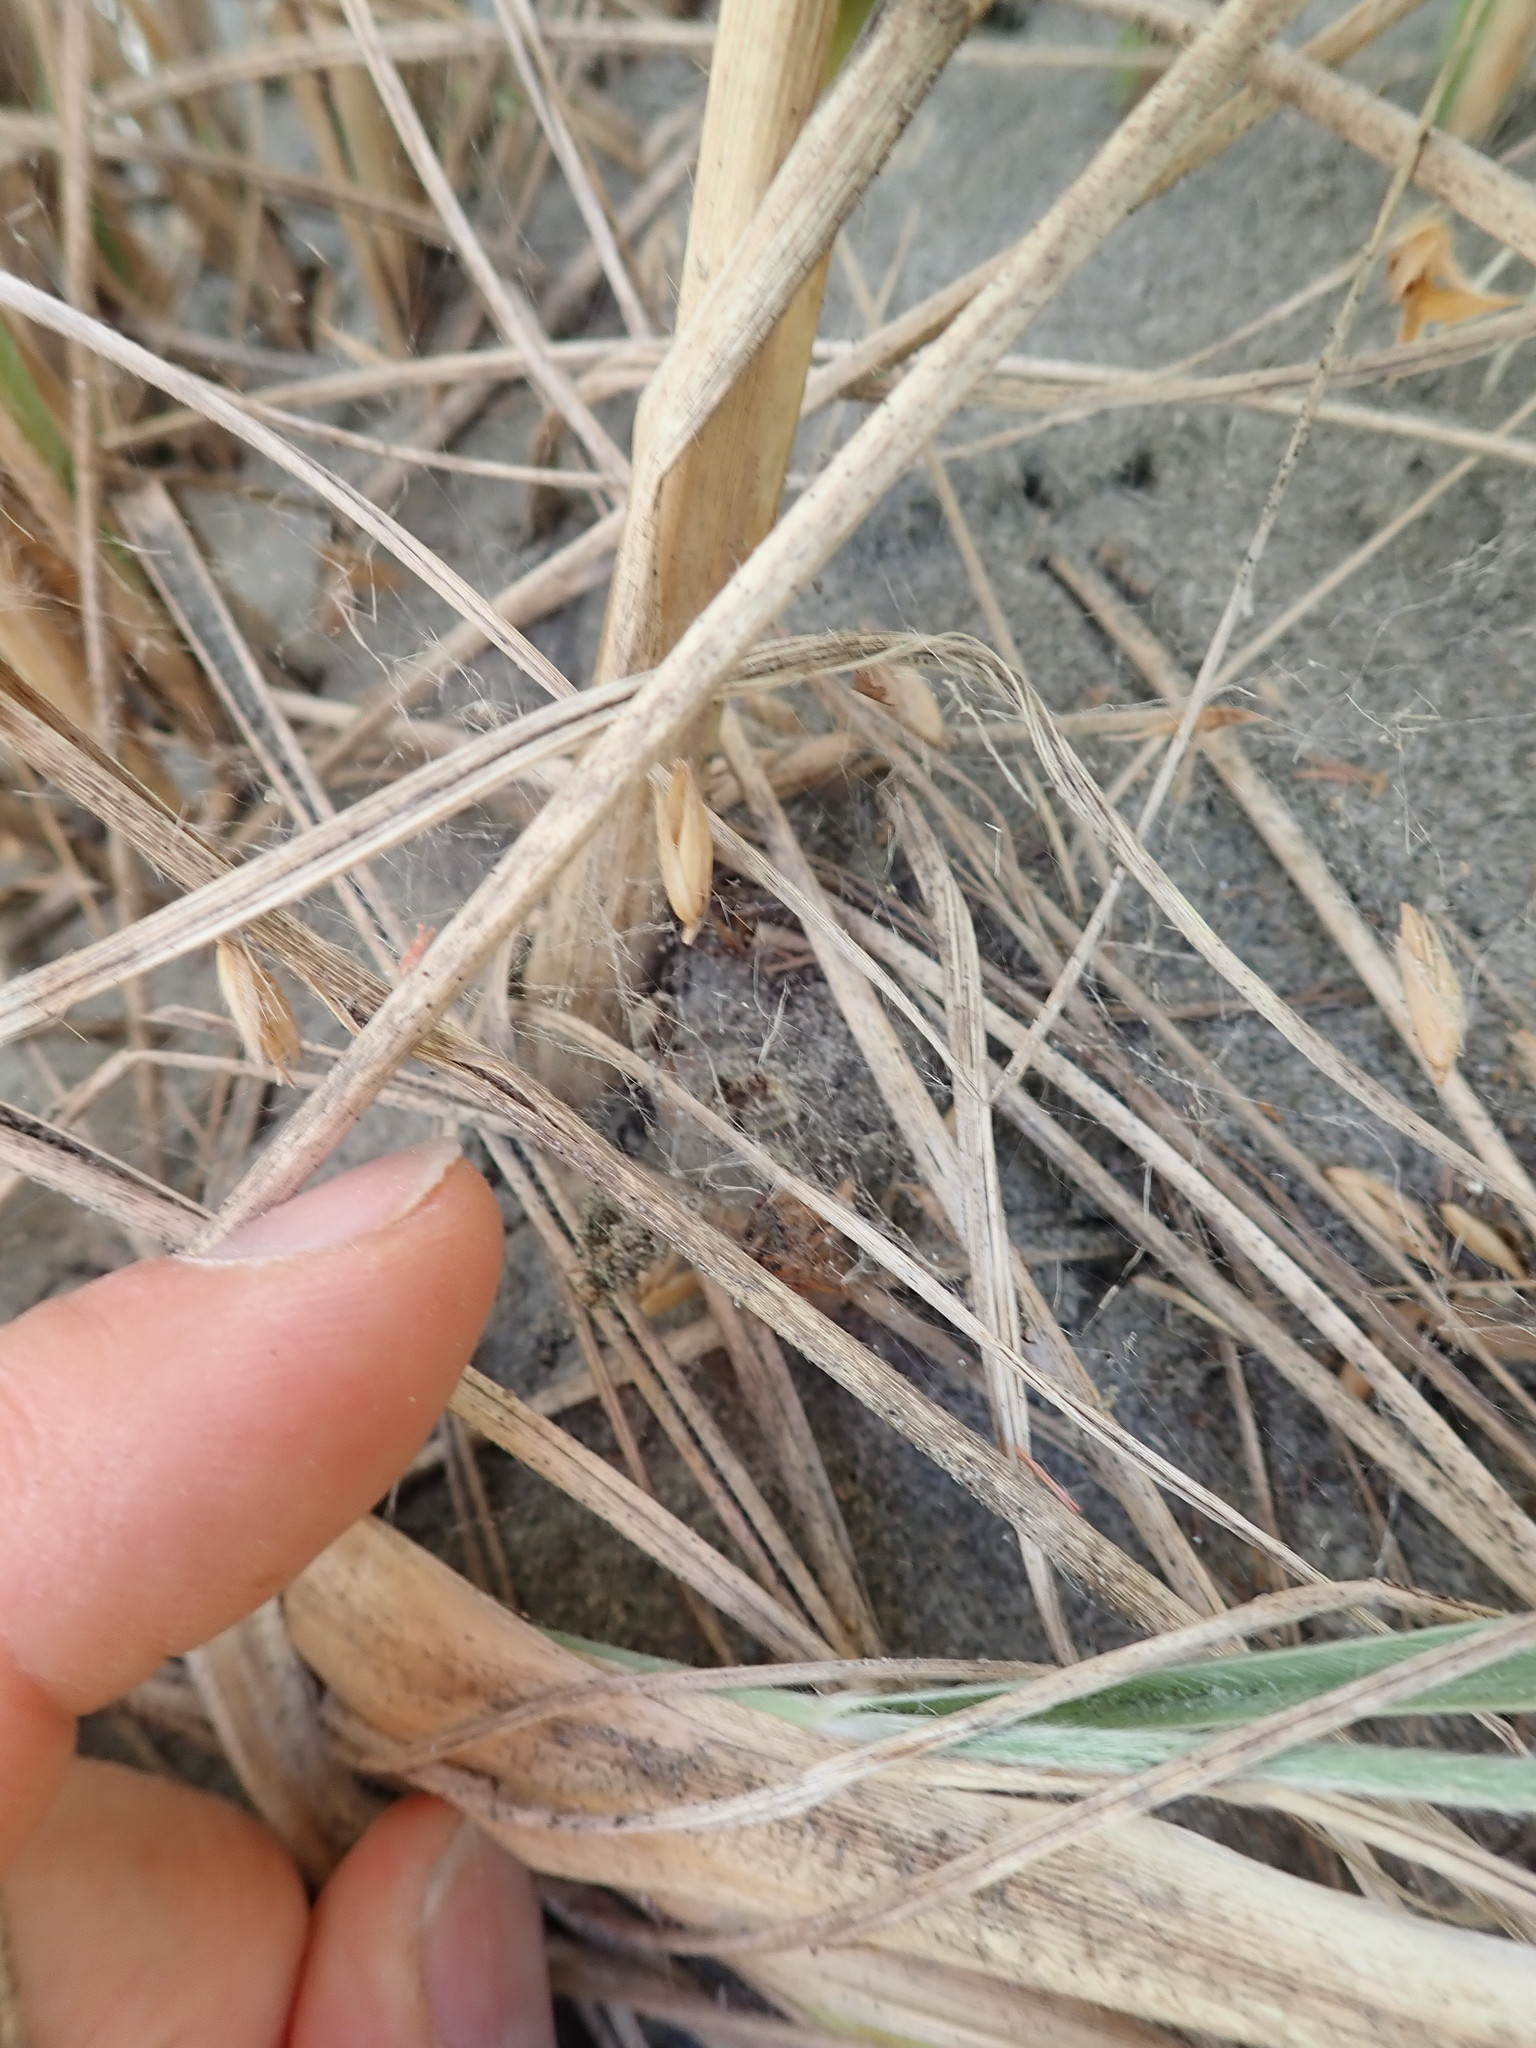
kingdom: Animalia
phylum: Arthropoda
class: Arachnida
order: Araneae
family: Theridiidae
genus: Latrodectus
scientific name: Latrodectus katipo
